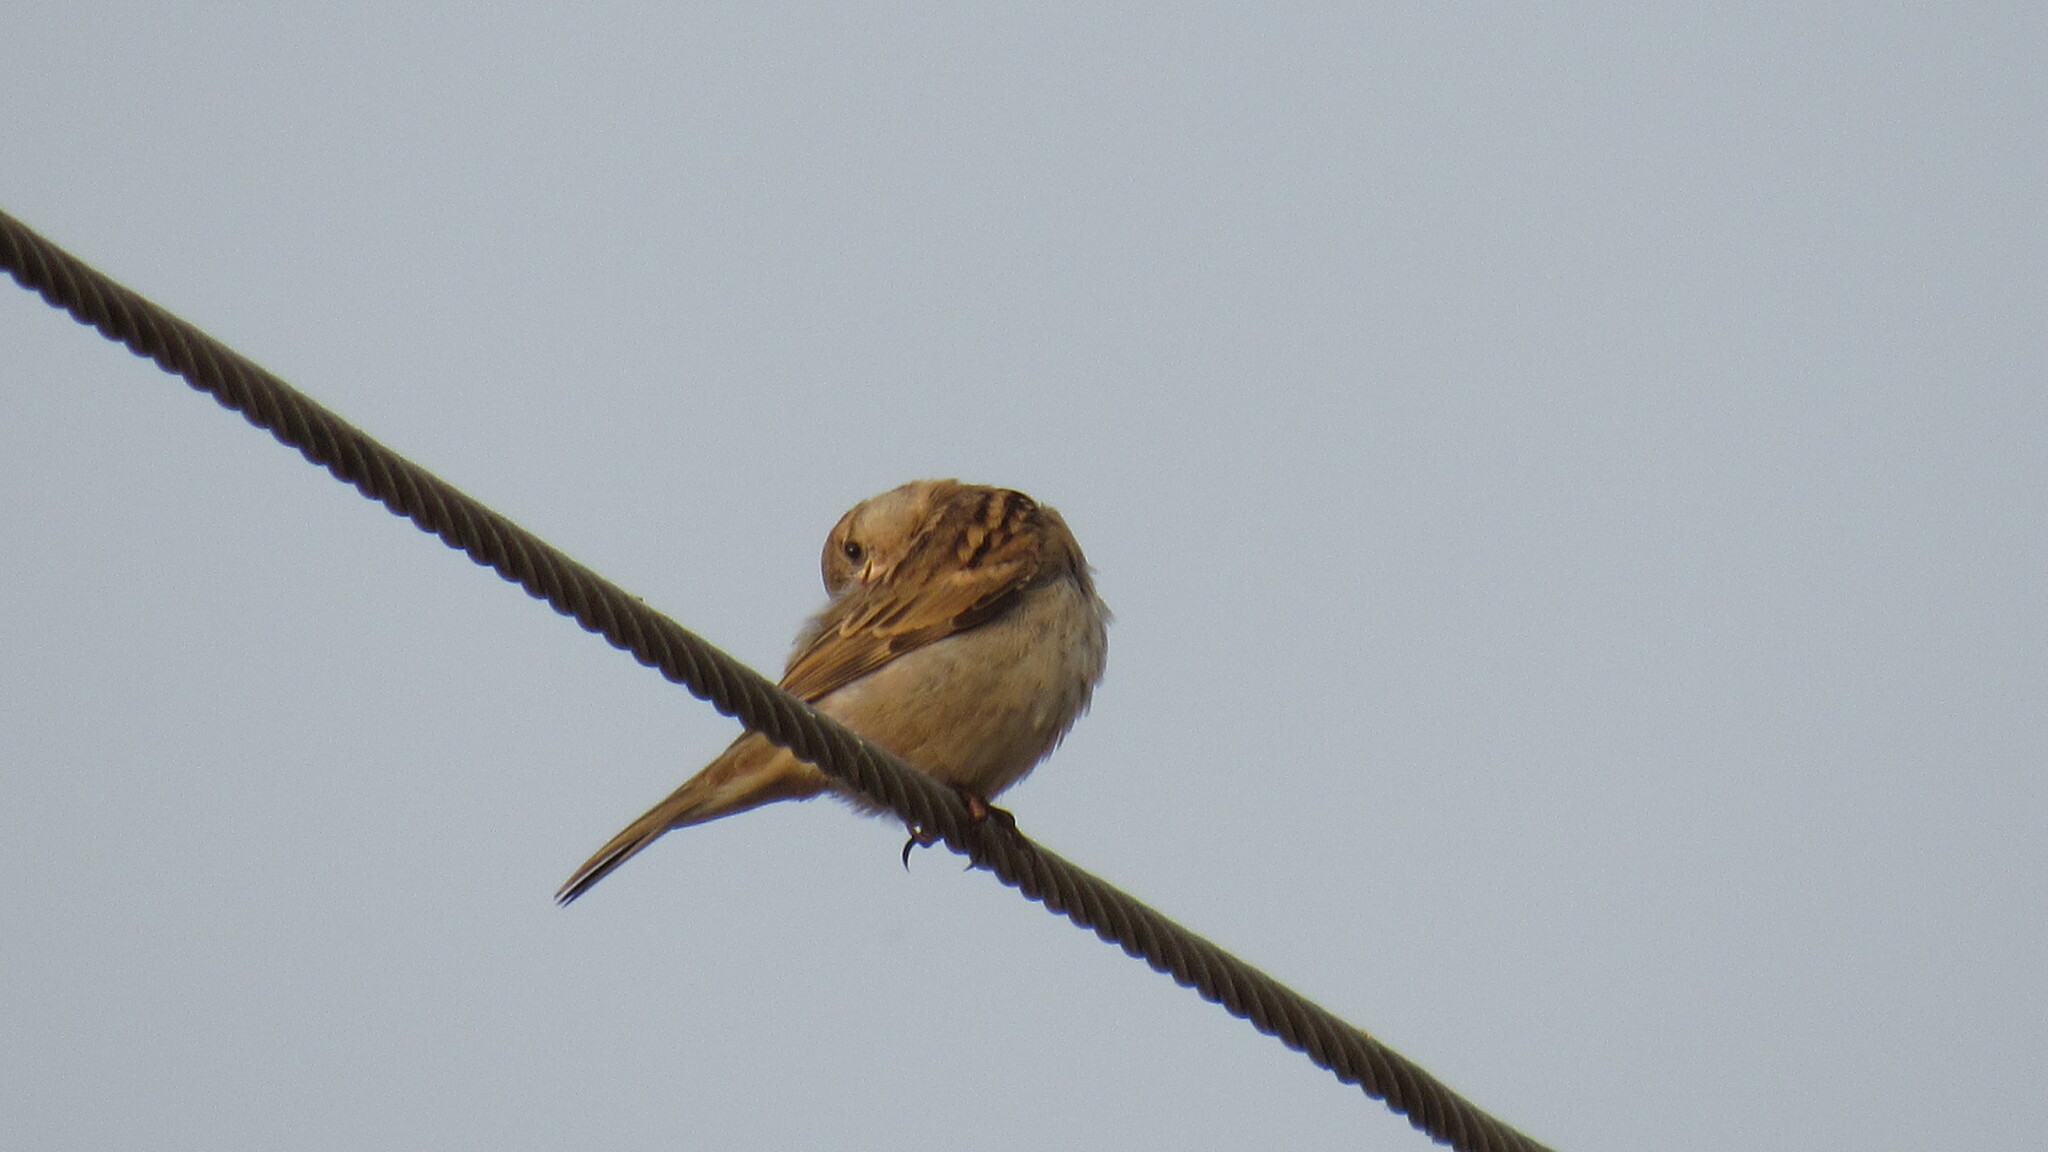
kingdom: Animalia
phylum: Chordata
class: Aves
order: Passeriformes
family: Passeridae
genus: Passer
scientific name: Passer domesticus
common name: House sparrow
